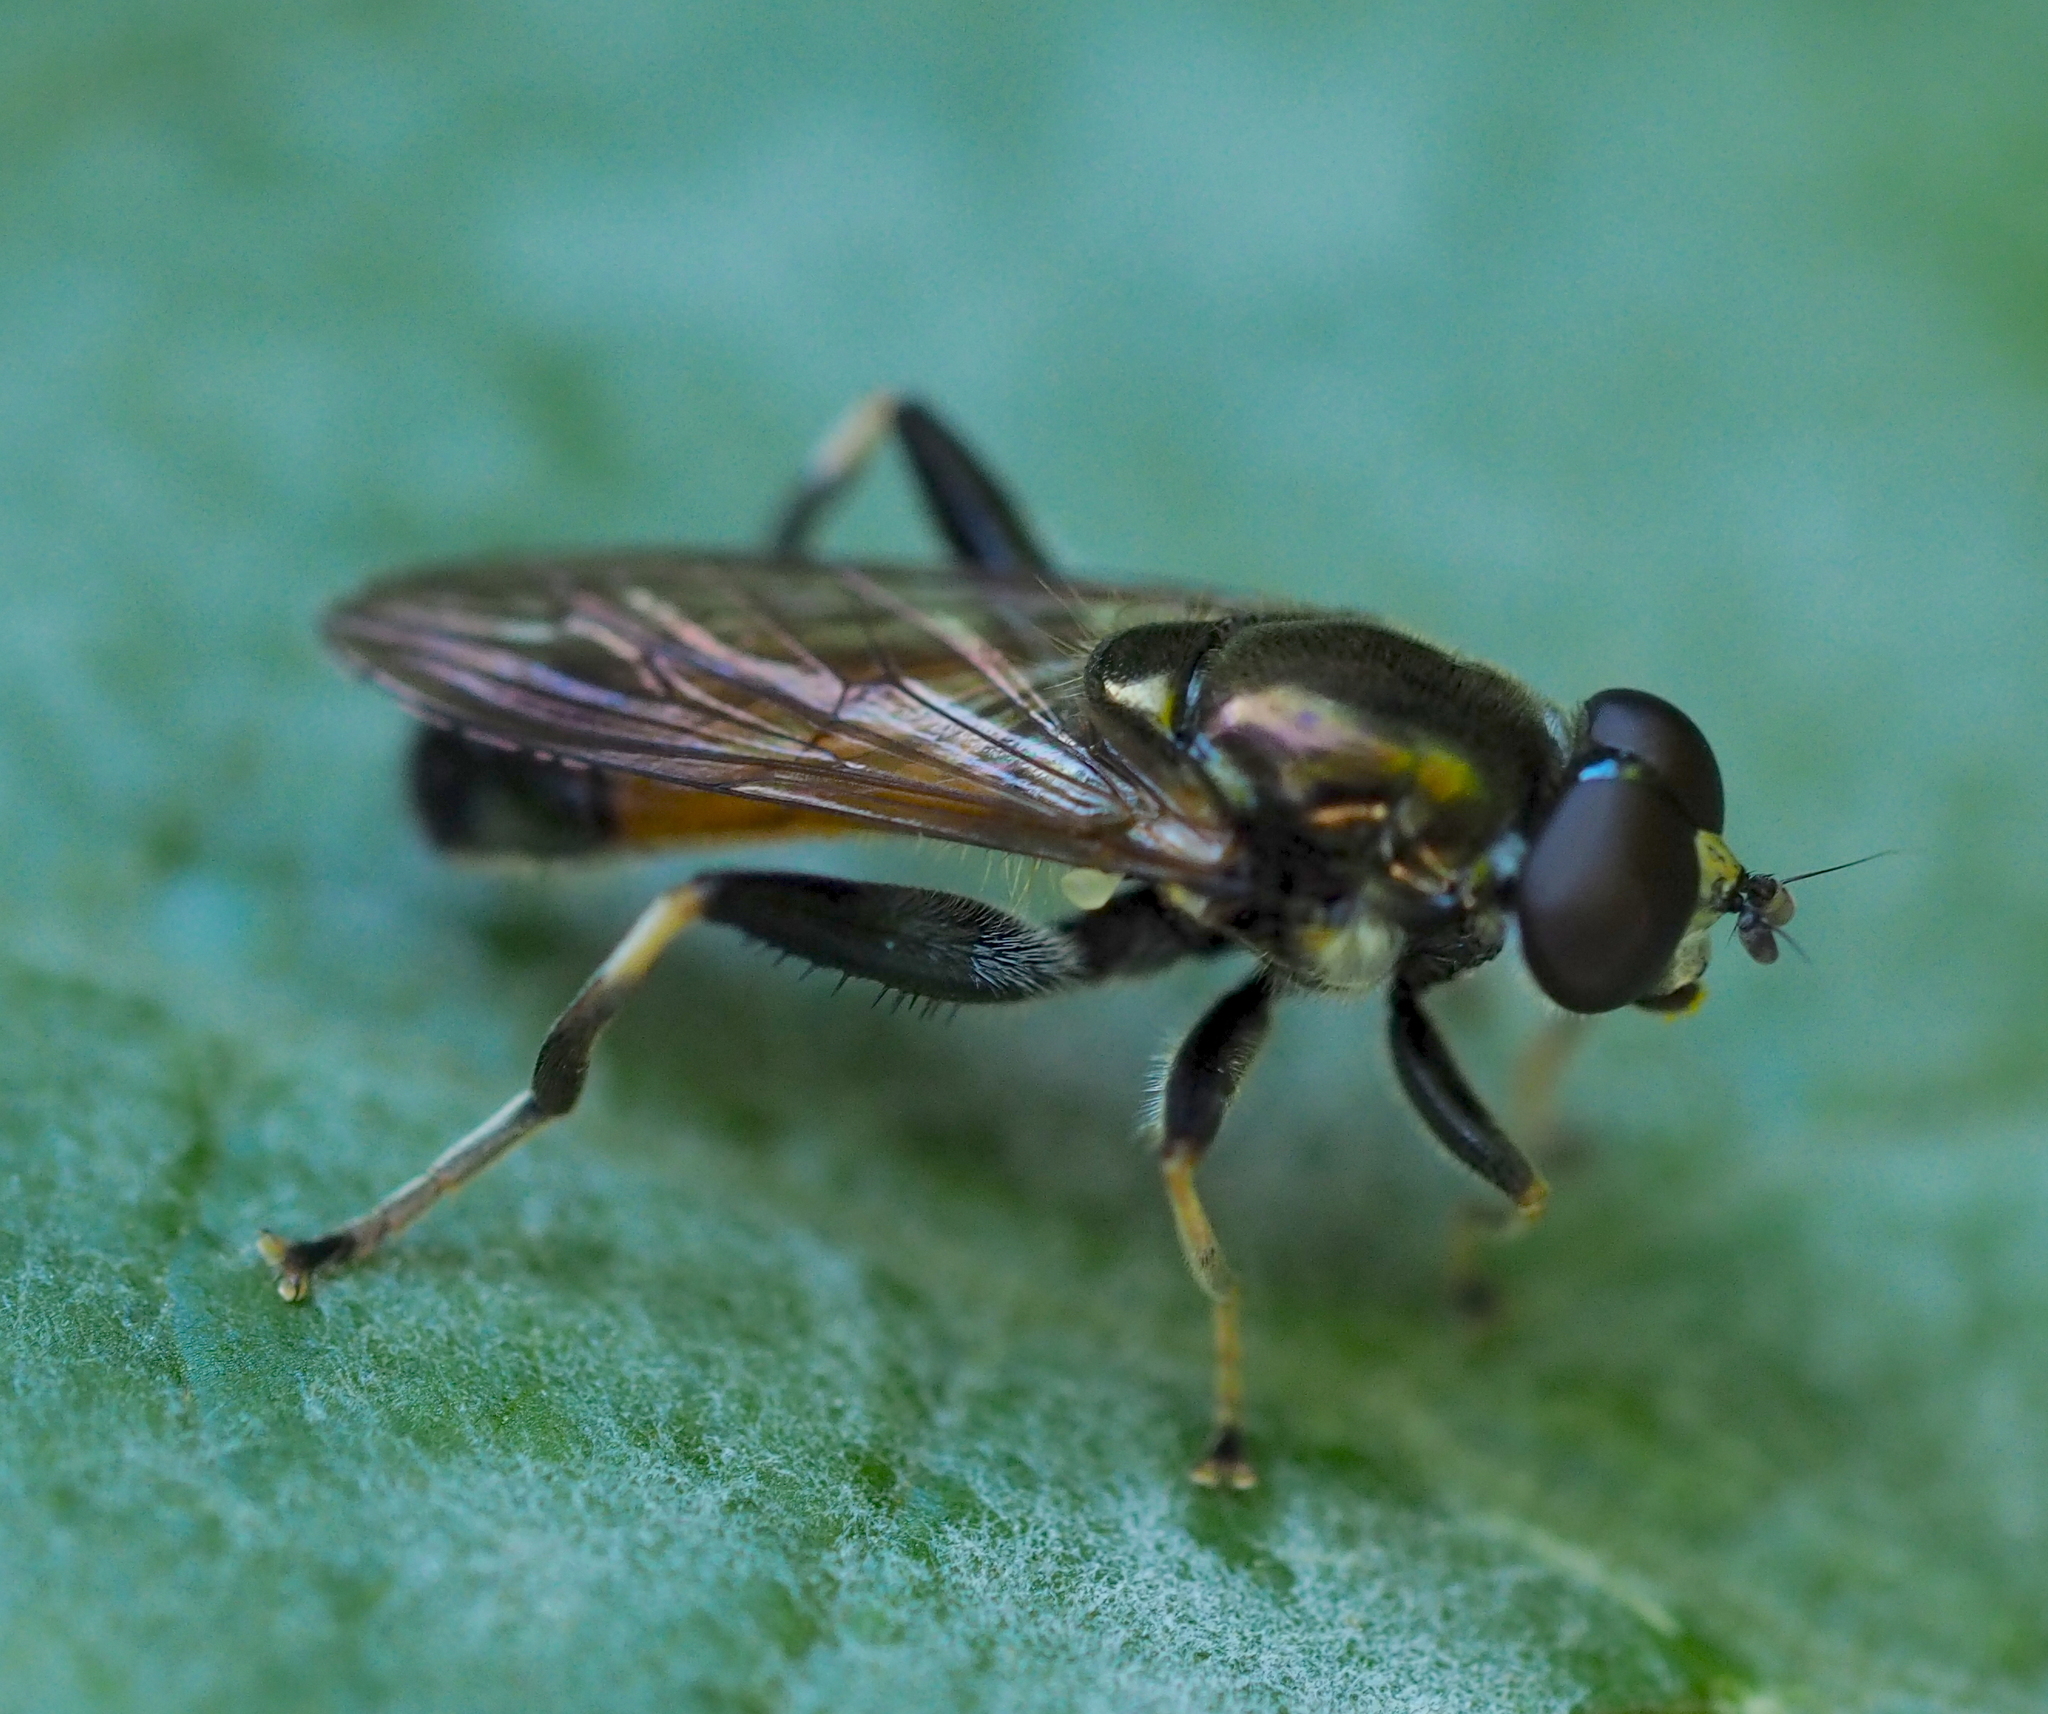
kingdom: Animalia
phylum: Arthropoda
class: Insecta
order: Diptera
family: Syrphidae
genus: Xylota
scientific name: Xylota segnis
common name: Brown-toed forest fly
